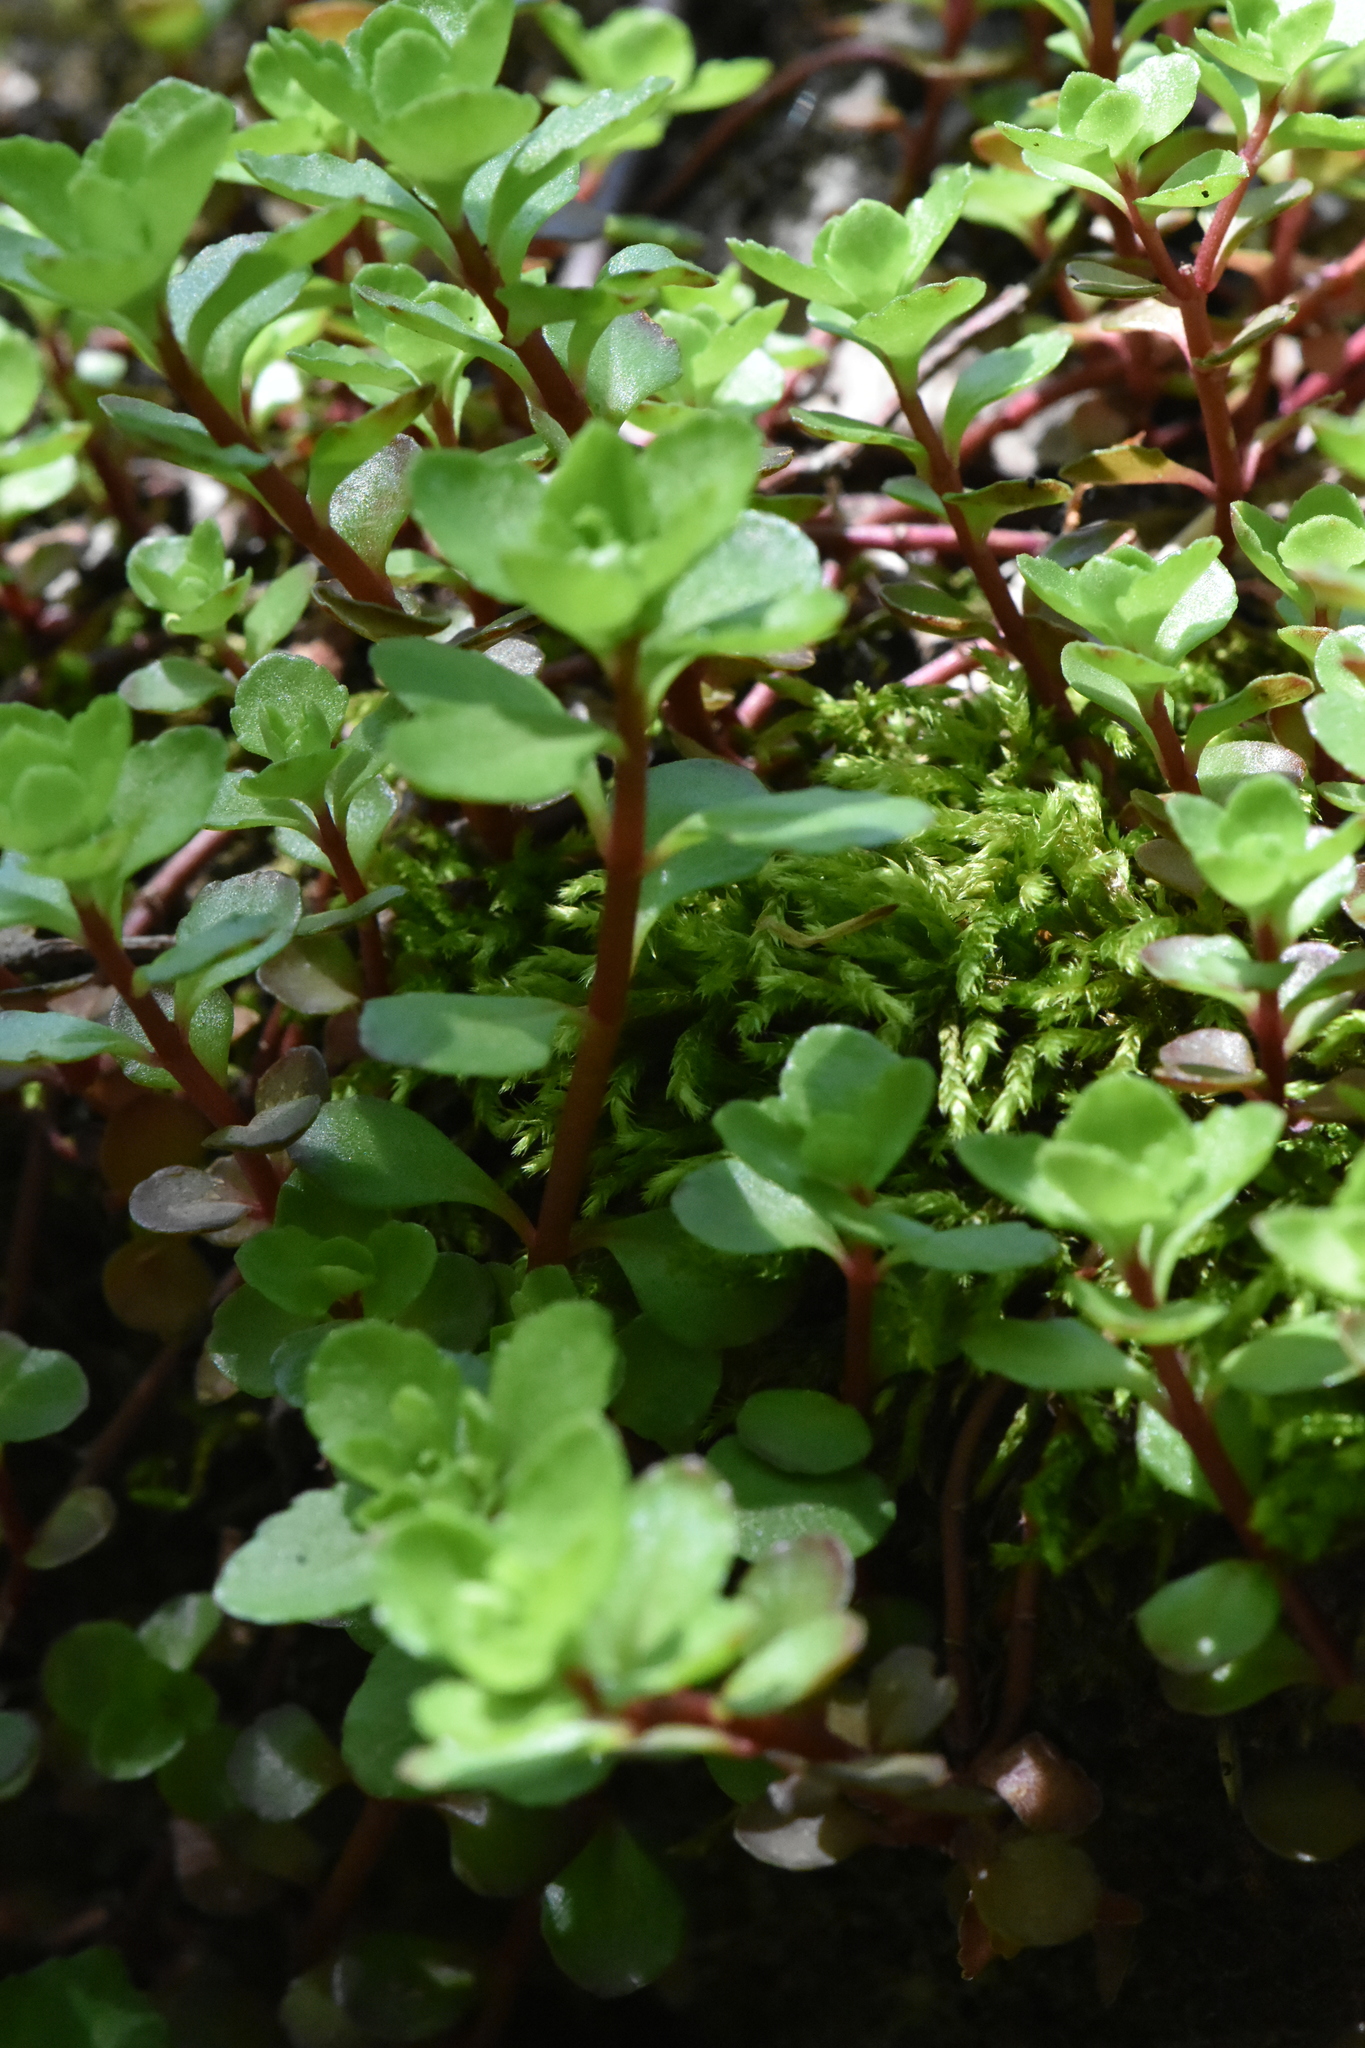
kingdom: Plantae
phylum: Tracheophyta
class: Magnoliopsida
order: Saxifragales
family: Crassulaceae
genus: Phedimus
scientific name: Phedimus spurius
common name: Caucasian stonecrop
